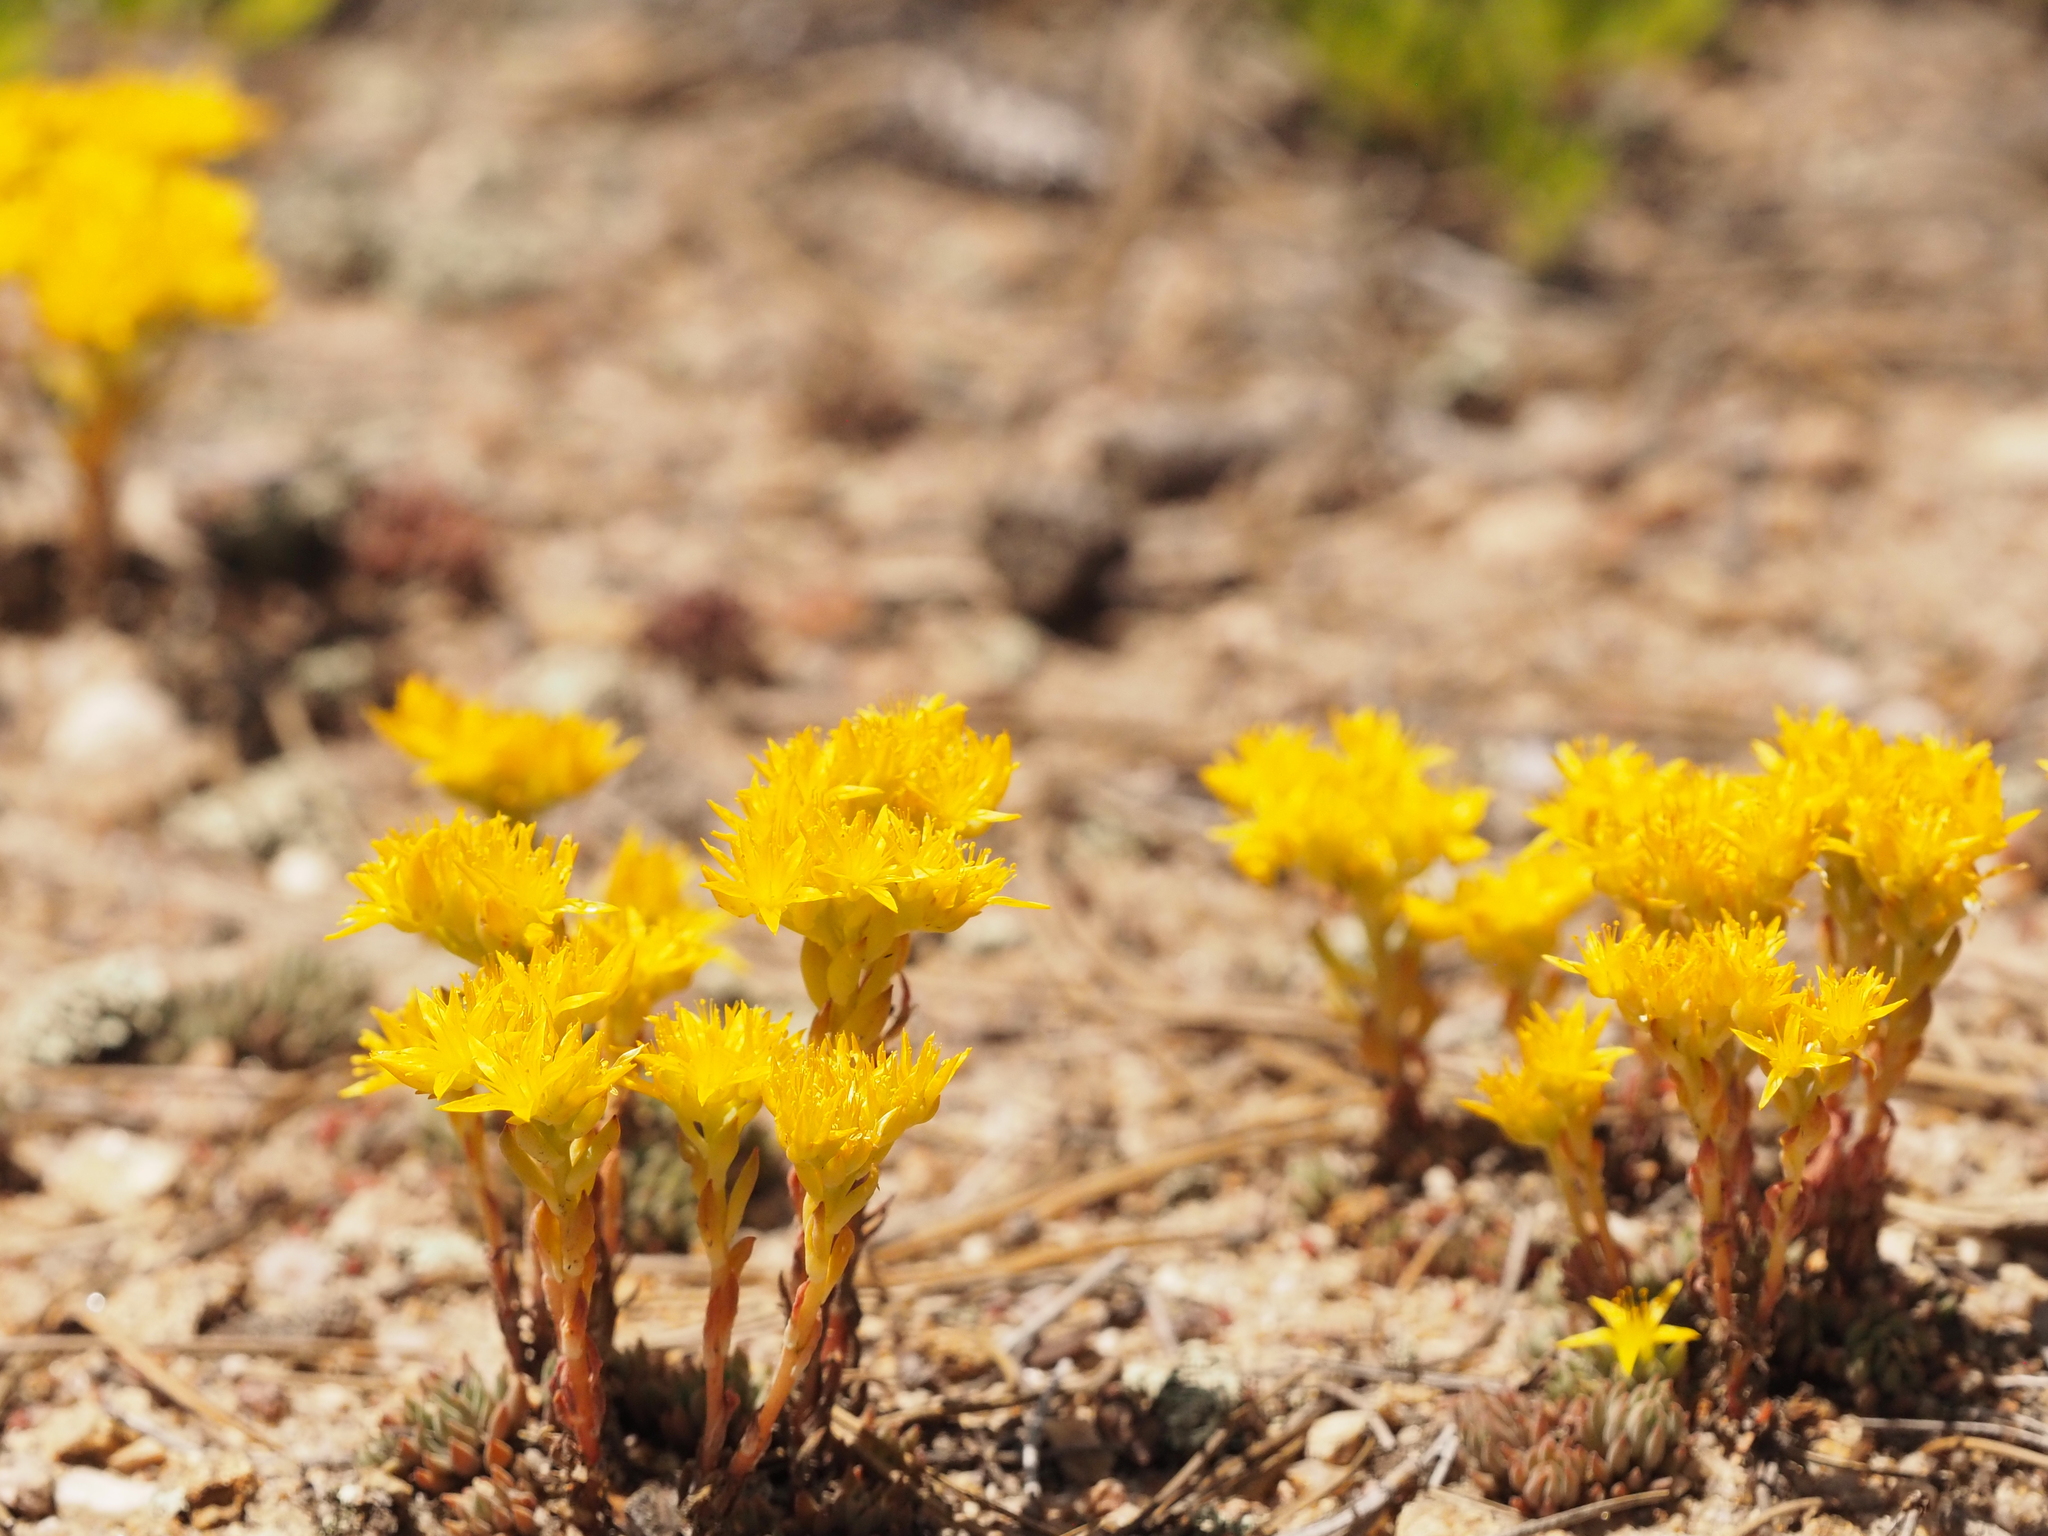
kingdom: Plantae
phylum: Tracheophyta
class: Magnoliopsida
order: Saxifragales
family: Crassulaceae
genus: Sedum
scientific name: Sedum lanceolatum
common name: Common stonecrop
